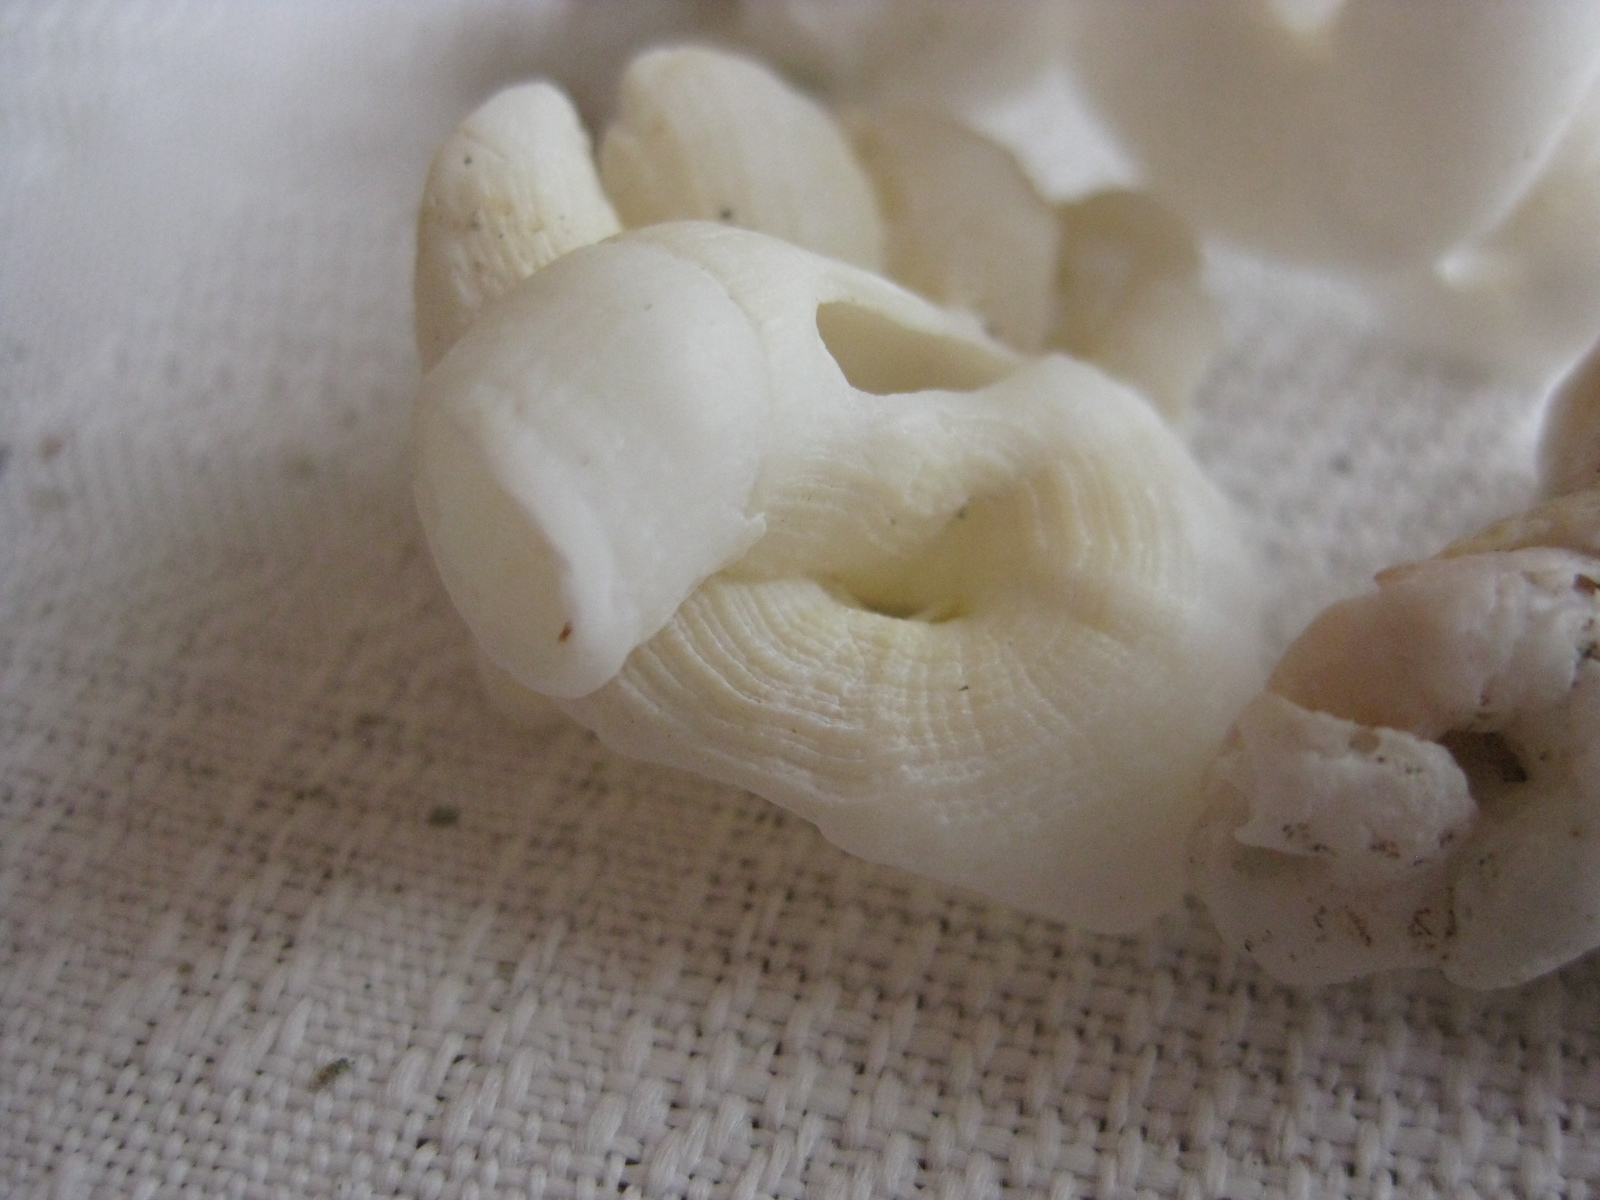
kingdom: Animalia
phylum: Mollusca
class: Gastropoda
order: Littorinimorpha
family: Vermetidae
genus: Thylacodes
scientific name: Thylacodes zelandicus
